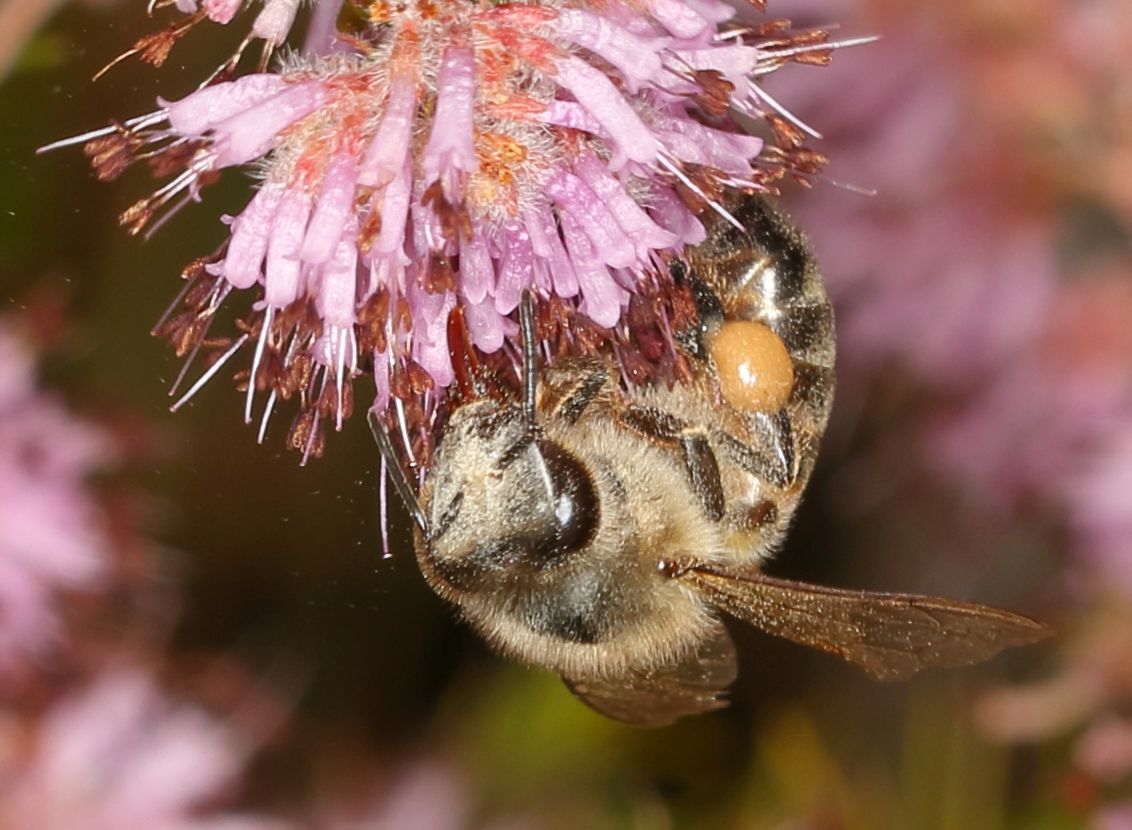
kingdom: Animalia
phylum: Arthropoda
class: Insecta
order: Hymenoptera
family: Apidae
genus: Apis
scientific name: Apis mellifera
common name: Honey bee
